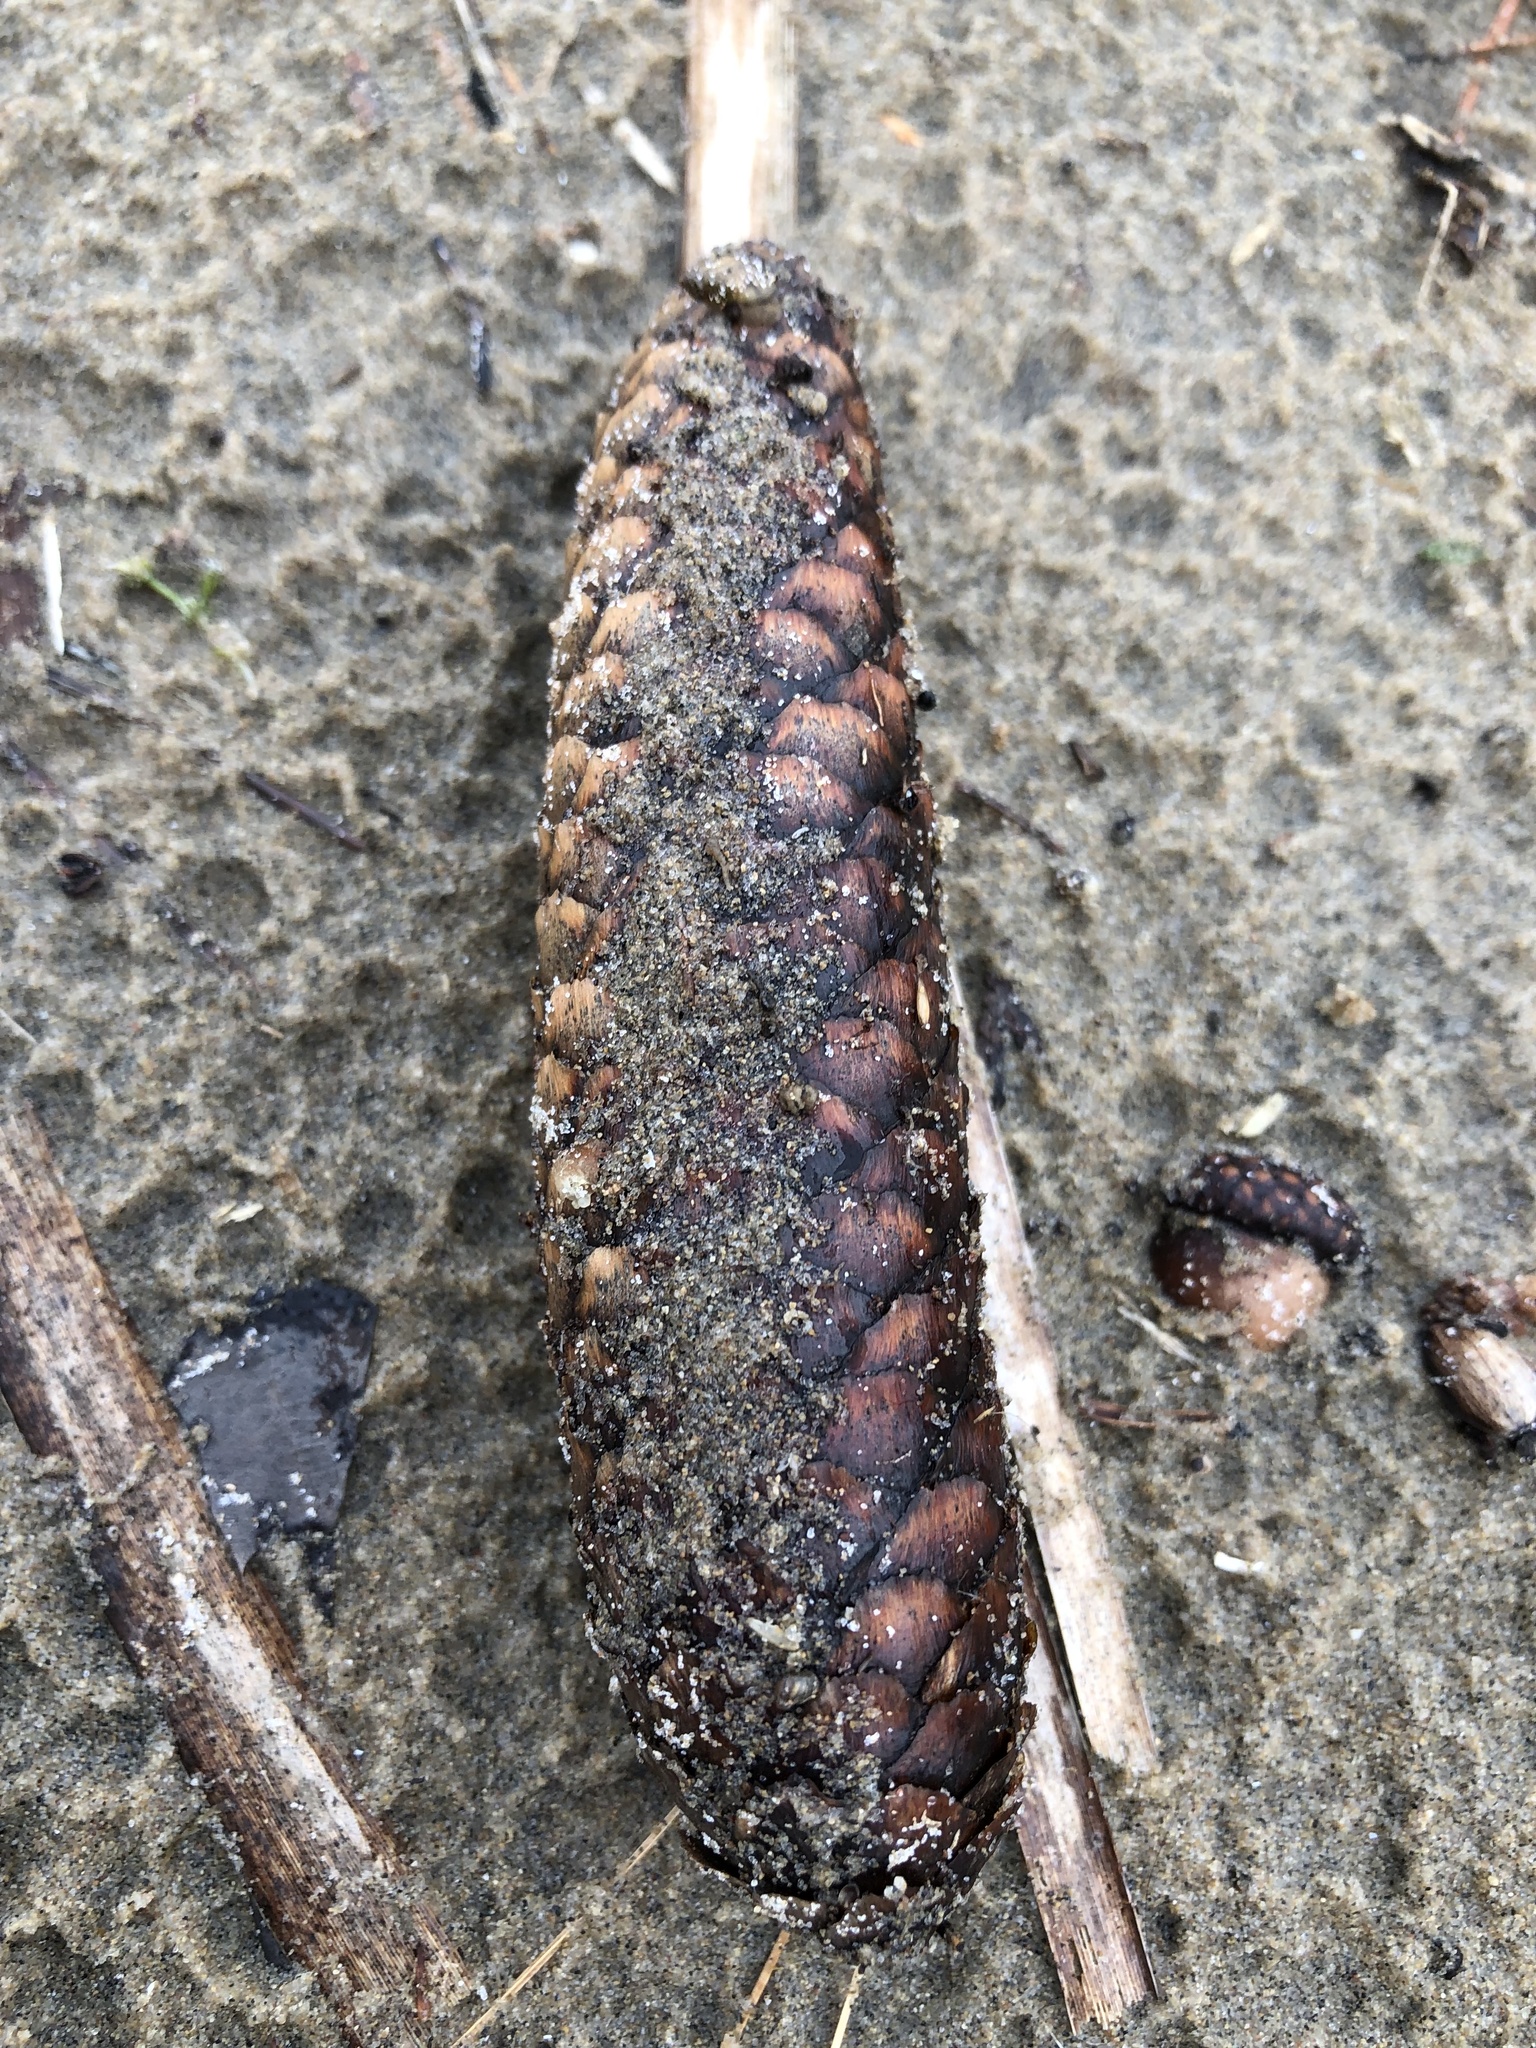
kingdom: Plantae
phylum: Tracheophyta
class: Pinopsida
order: Pinales
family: Pinaceae
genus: Picea
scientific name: Picea abies
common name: Norway spruce
